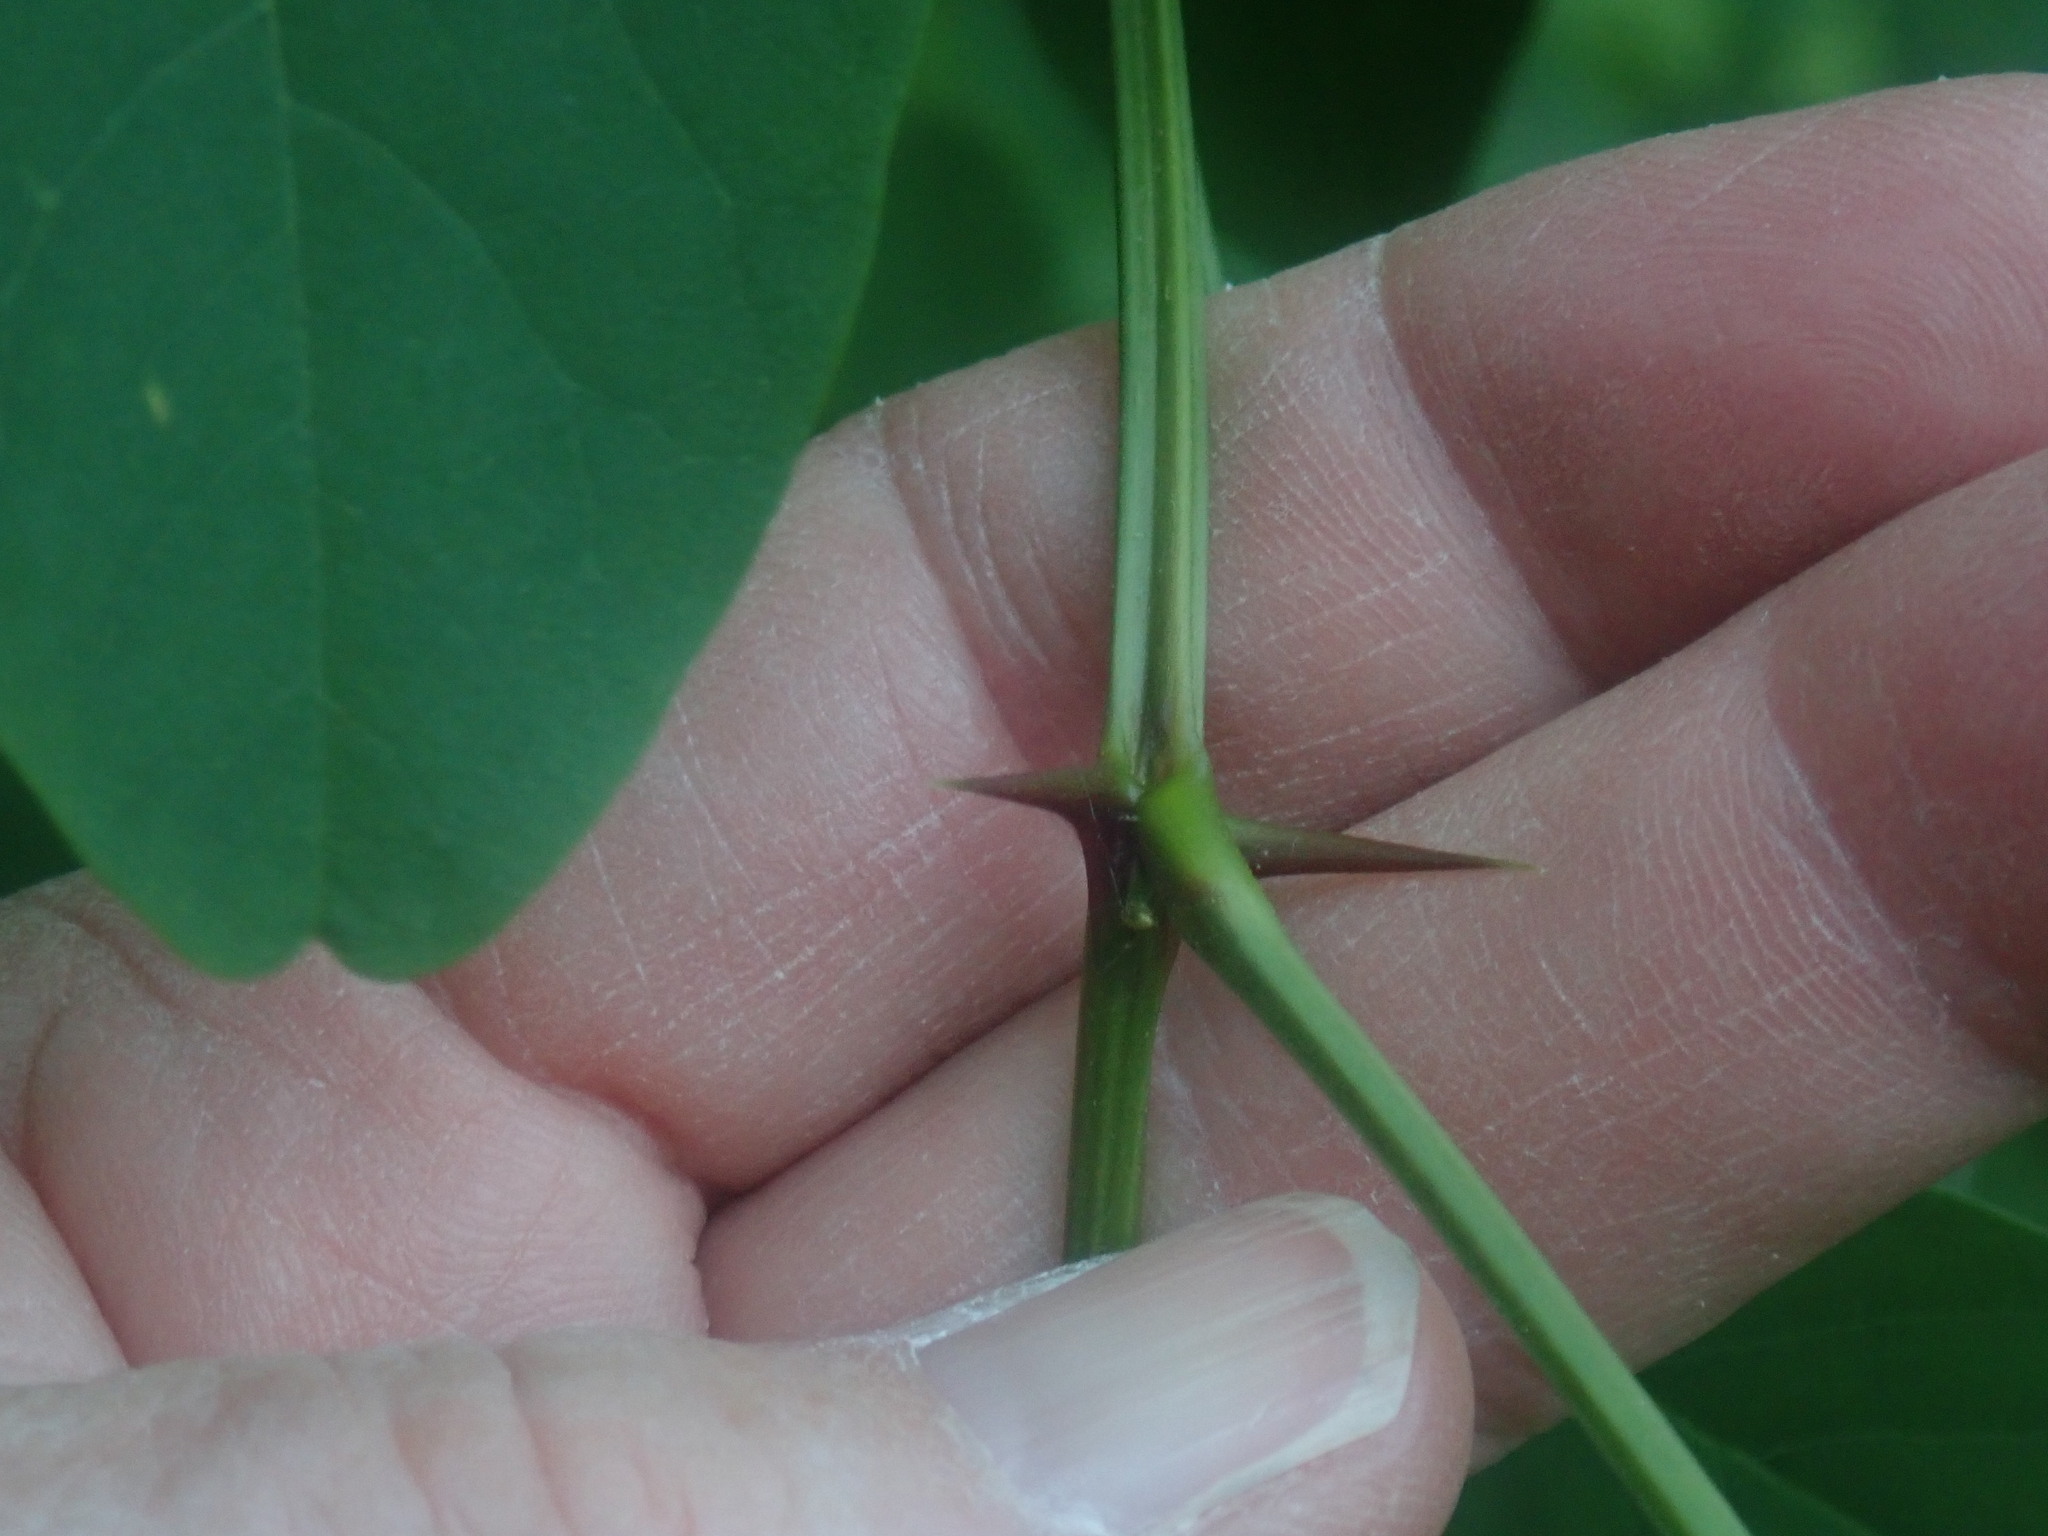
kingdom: Plantae
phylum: Tracheophyta
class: Magnoliopsida
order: Fabales
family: Fabaceae
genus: Robinia
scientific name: Robinia pseudoacacia
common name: Black locust
